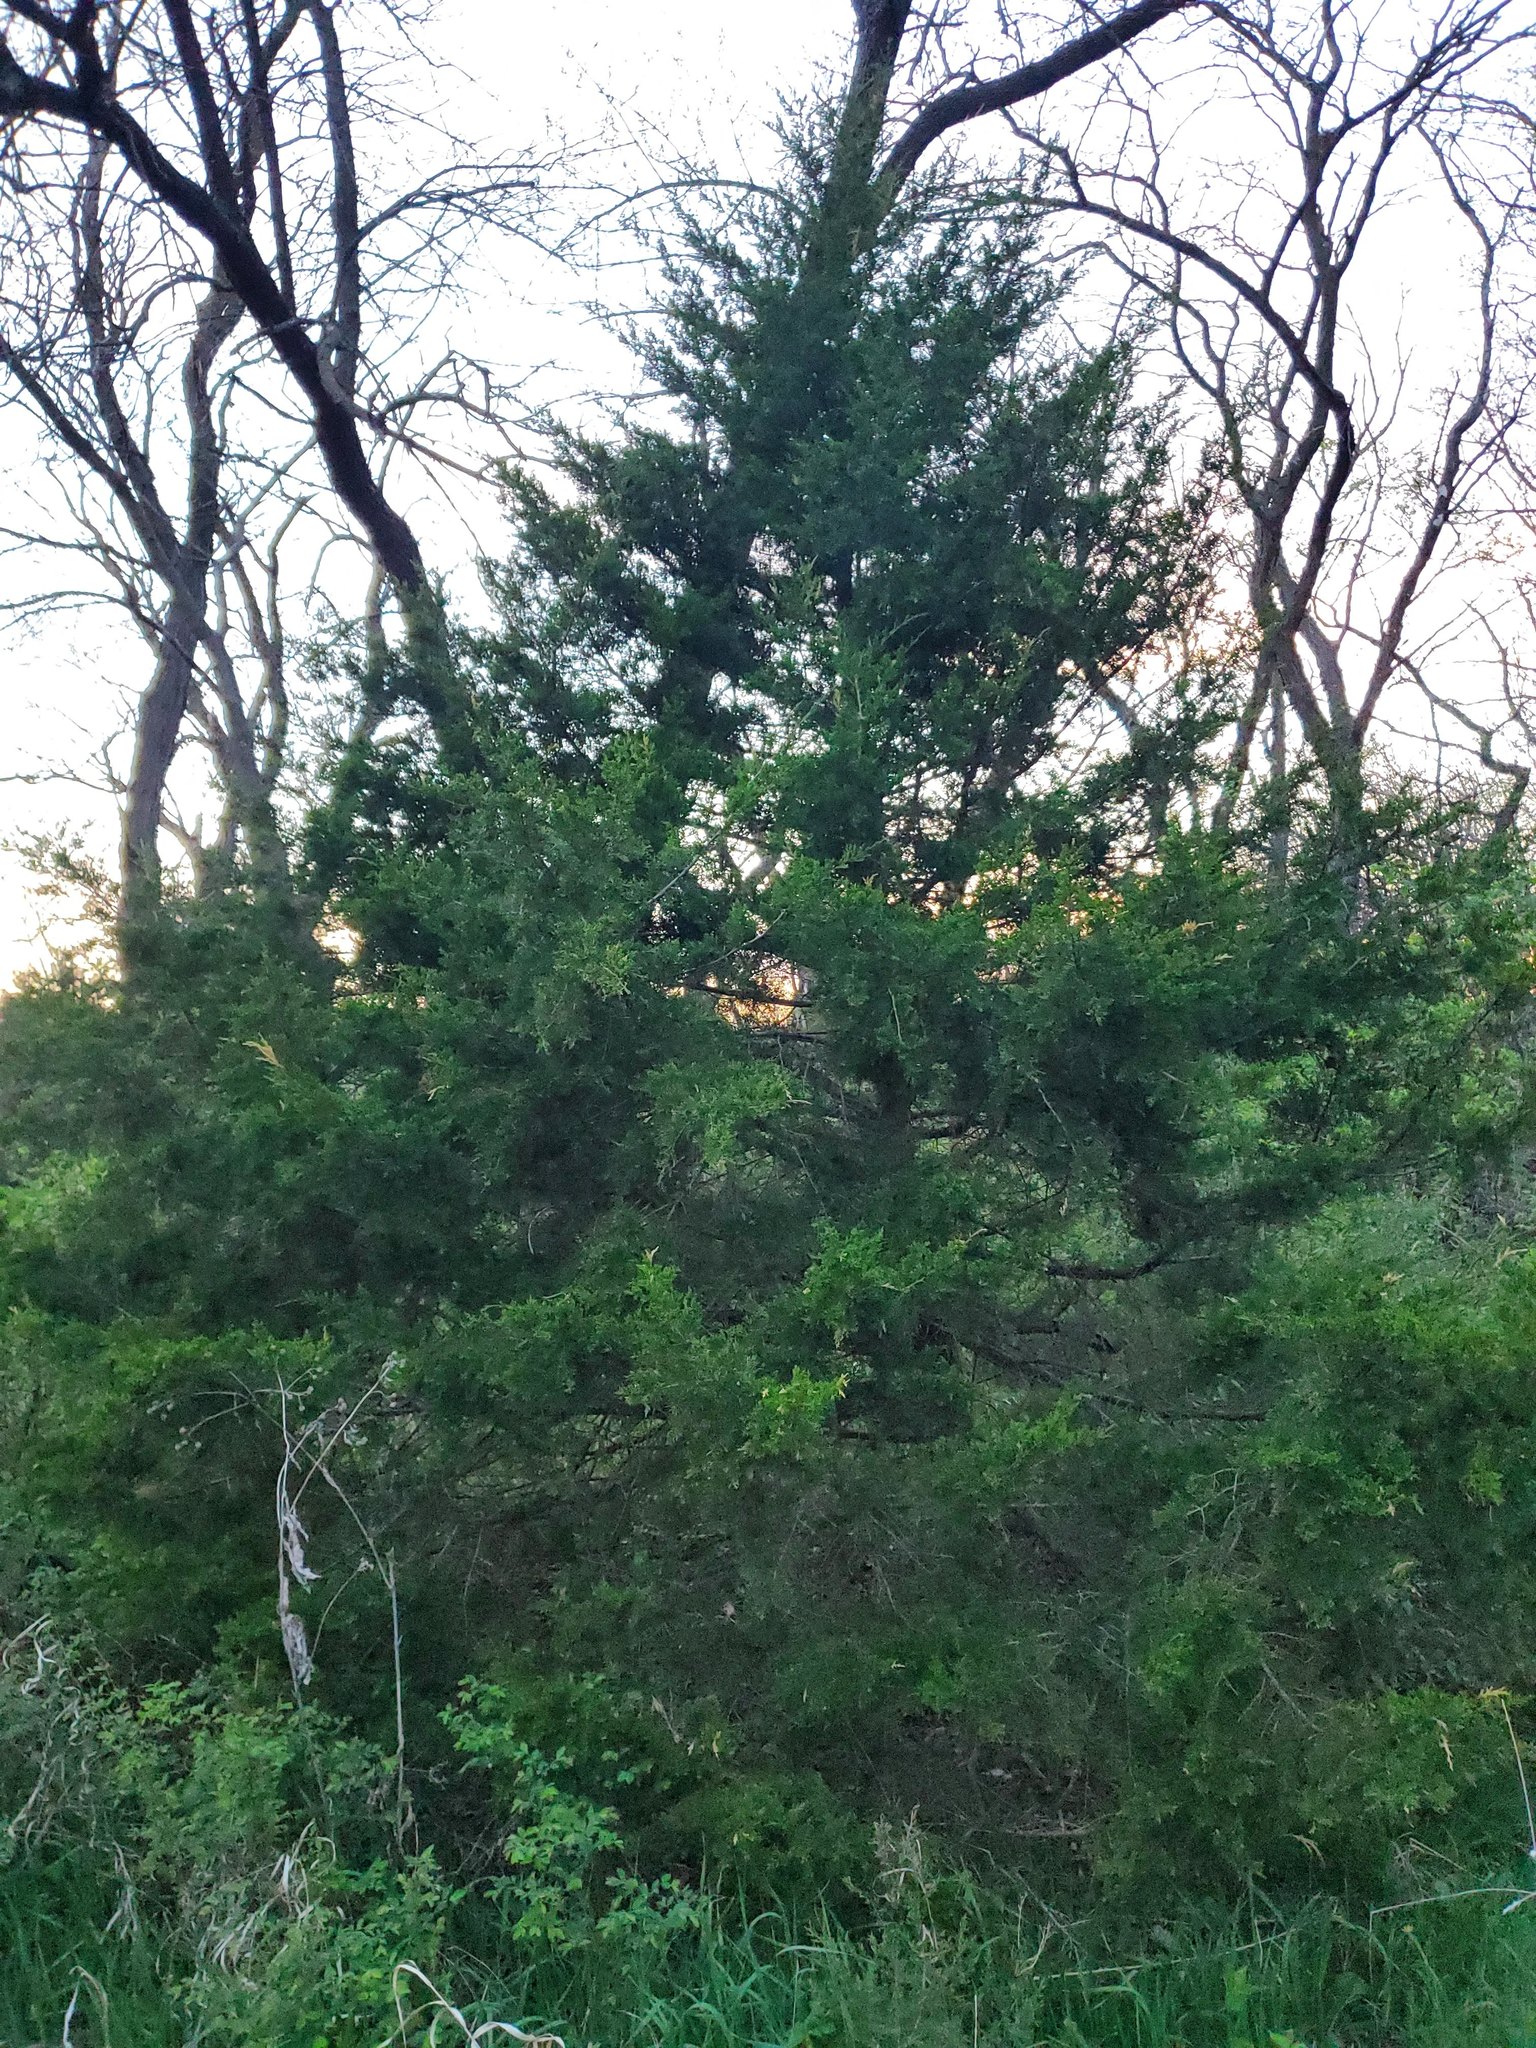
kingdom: Plantae
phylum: Tracheophyta
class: Pinopsida
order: Pinales
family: Cupressaceae
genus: Juniperus
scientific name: Juniperus virginiana
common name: Red juniper
